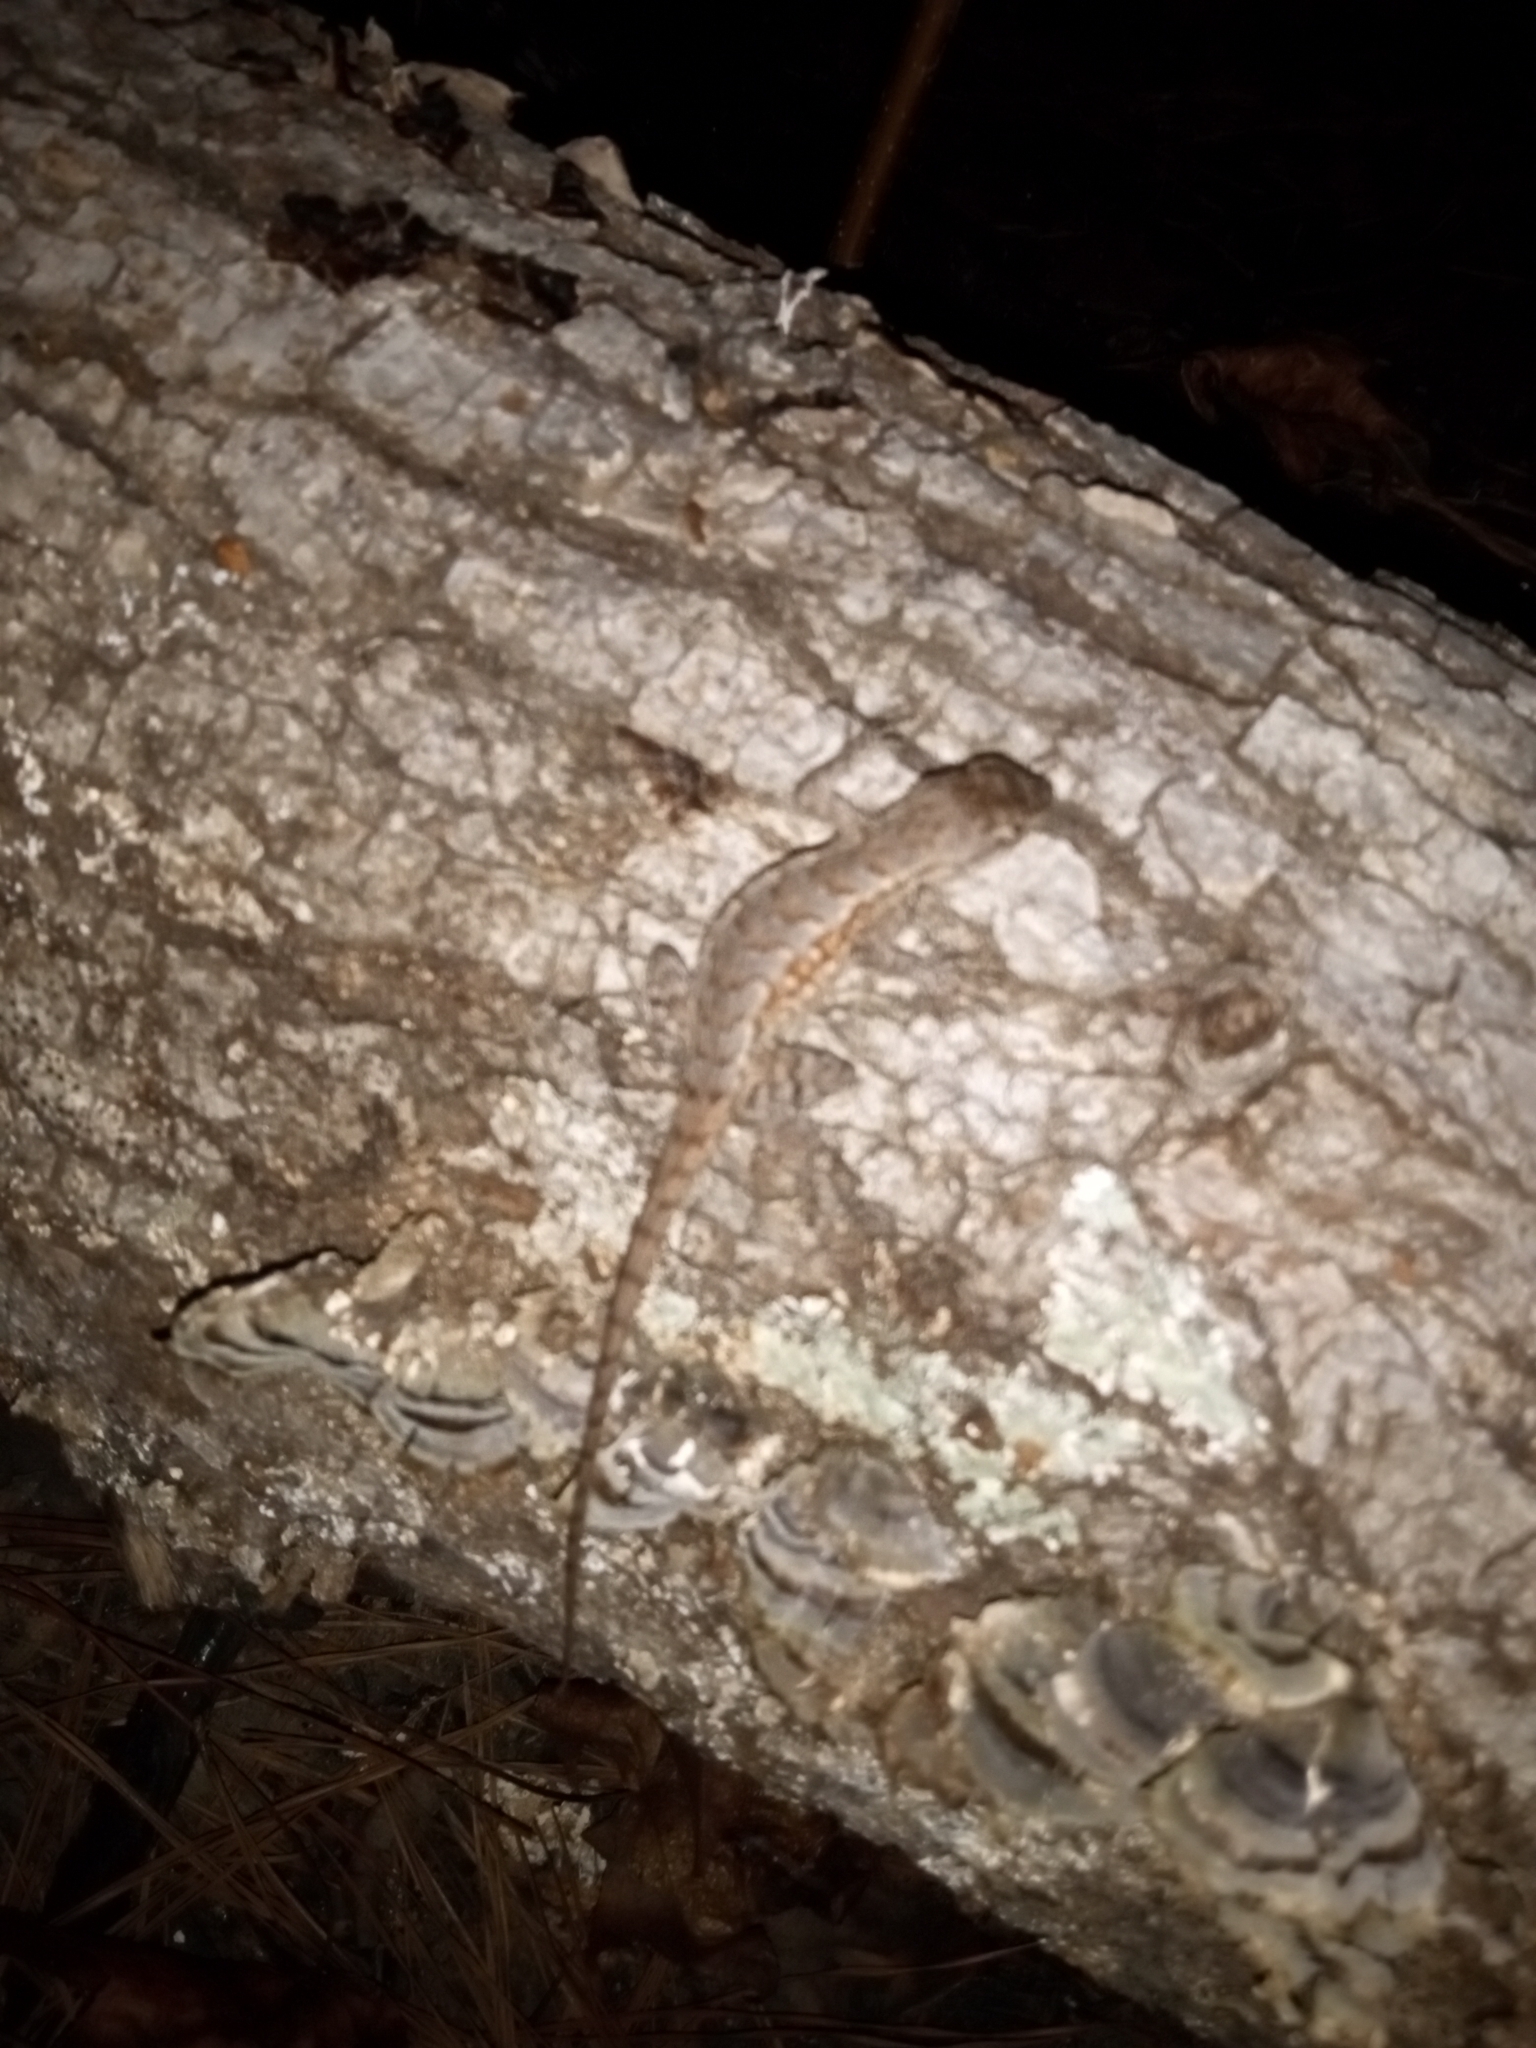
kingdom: Animalia
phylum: Chordata
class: Squamata
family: Phrynosomatidae
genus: Sceloporus
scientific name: Sceloporus consobrinus
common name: Southern prairie lizard
